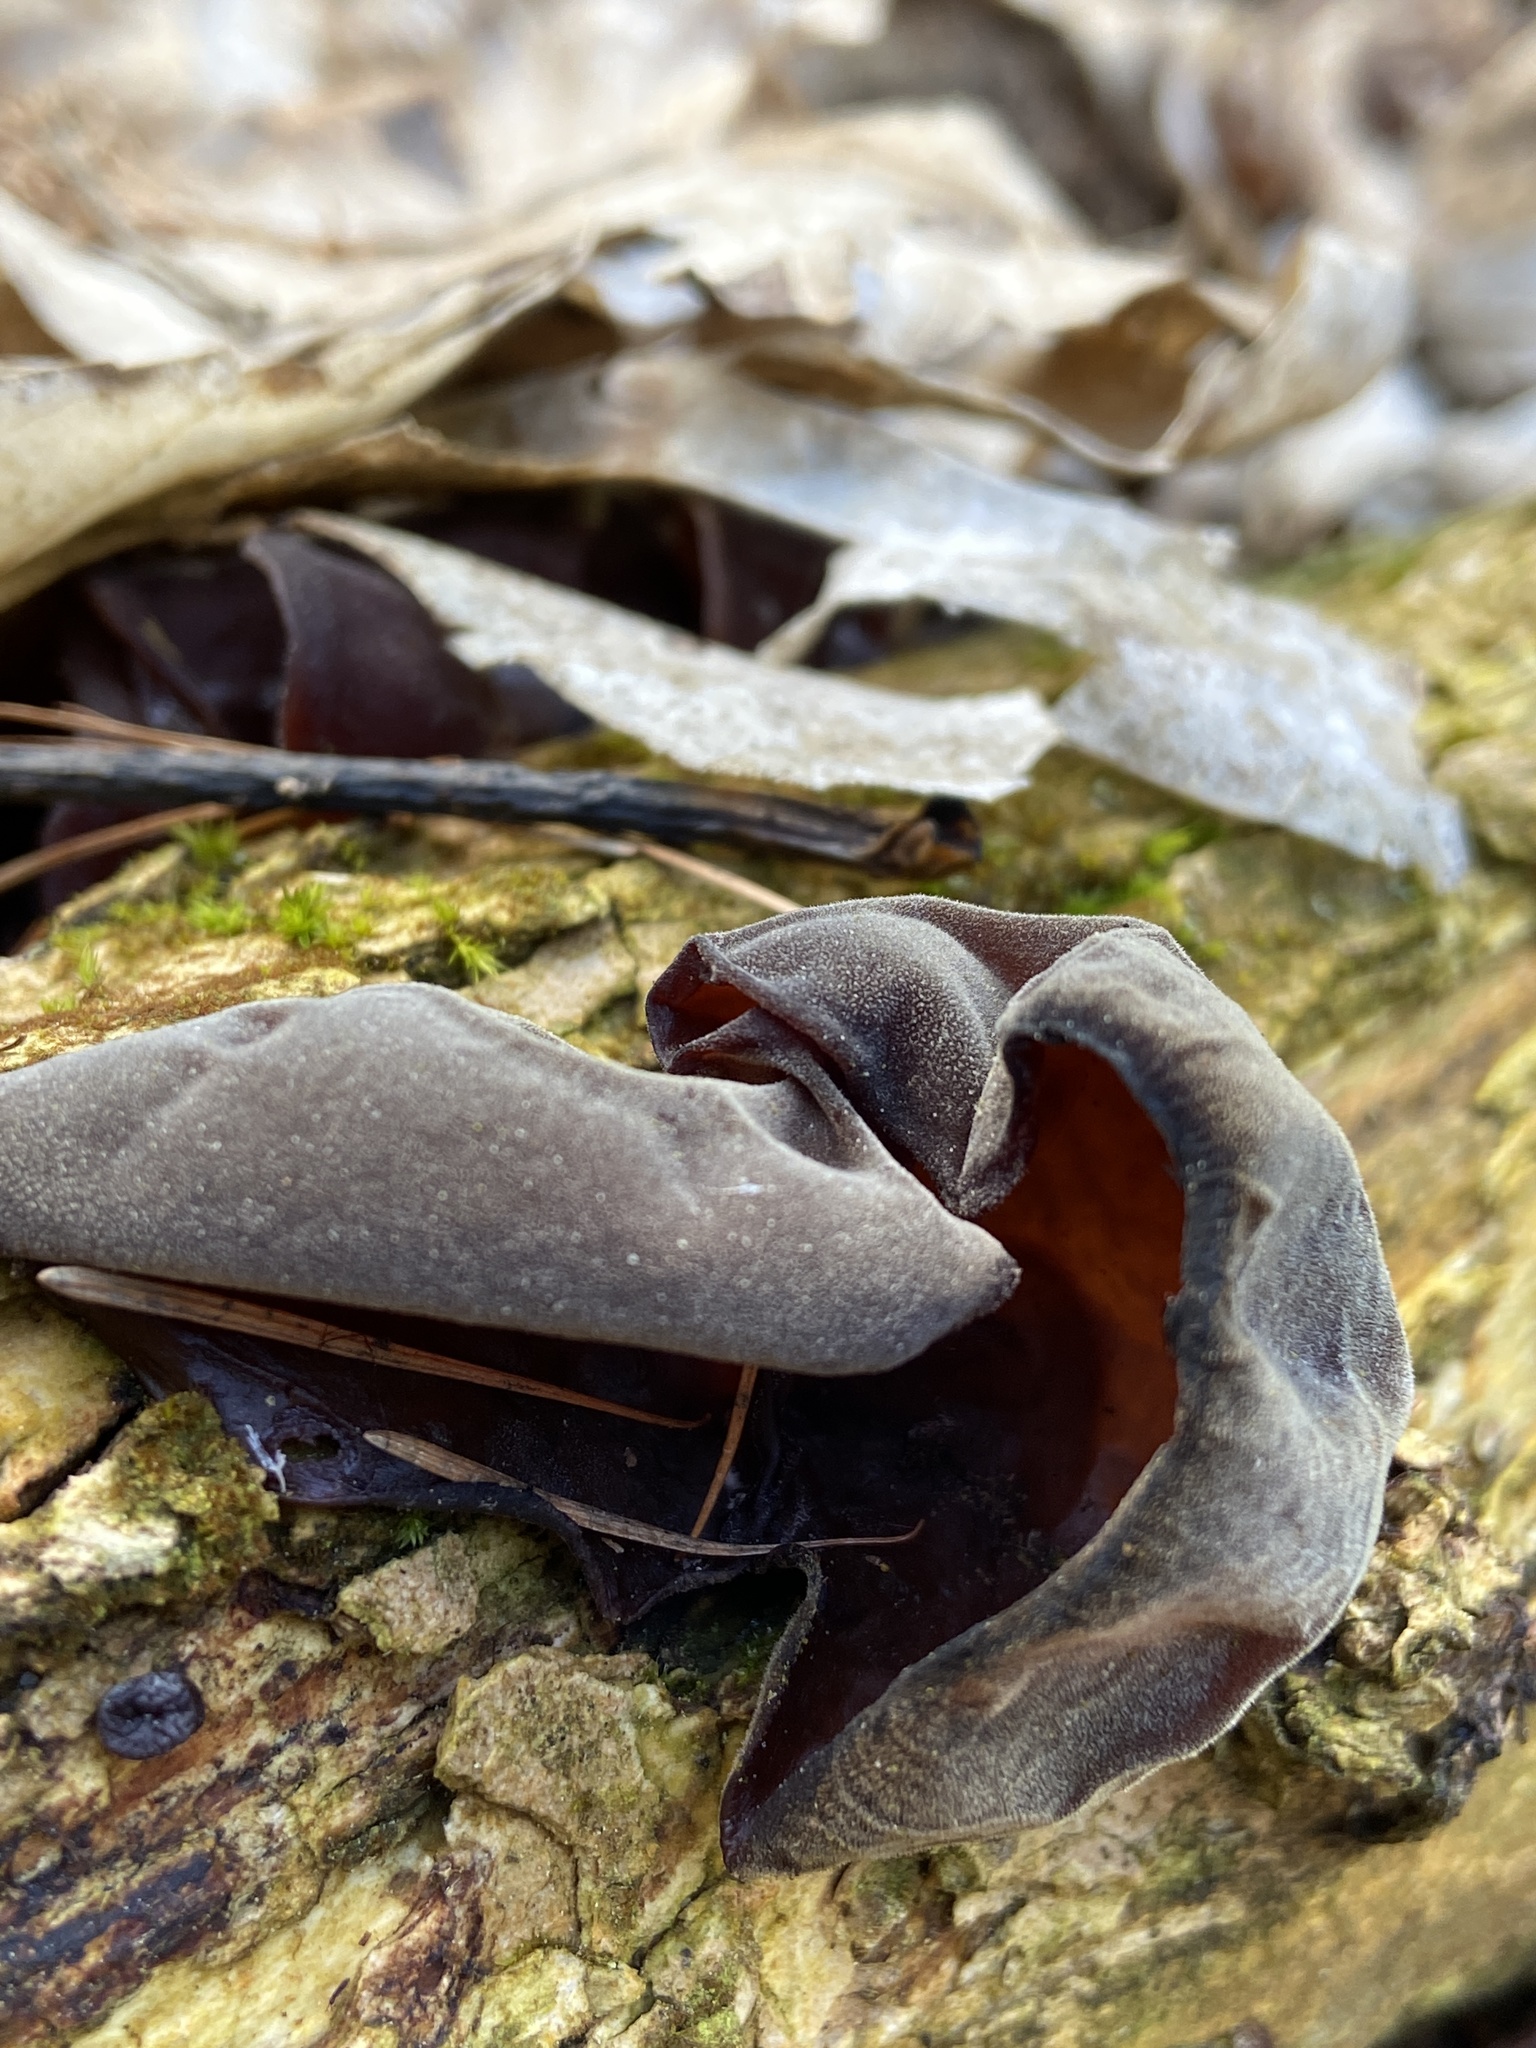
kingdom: Fungi
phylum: Basidiomycota
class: Agaricomycetes
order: Auriculariales
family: Auriculariaceae
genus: Auricularia
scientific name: Auricularia auricula-judae
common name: Jelly ear
